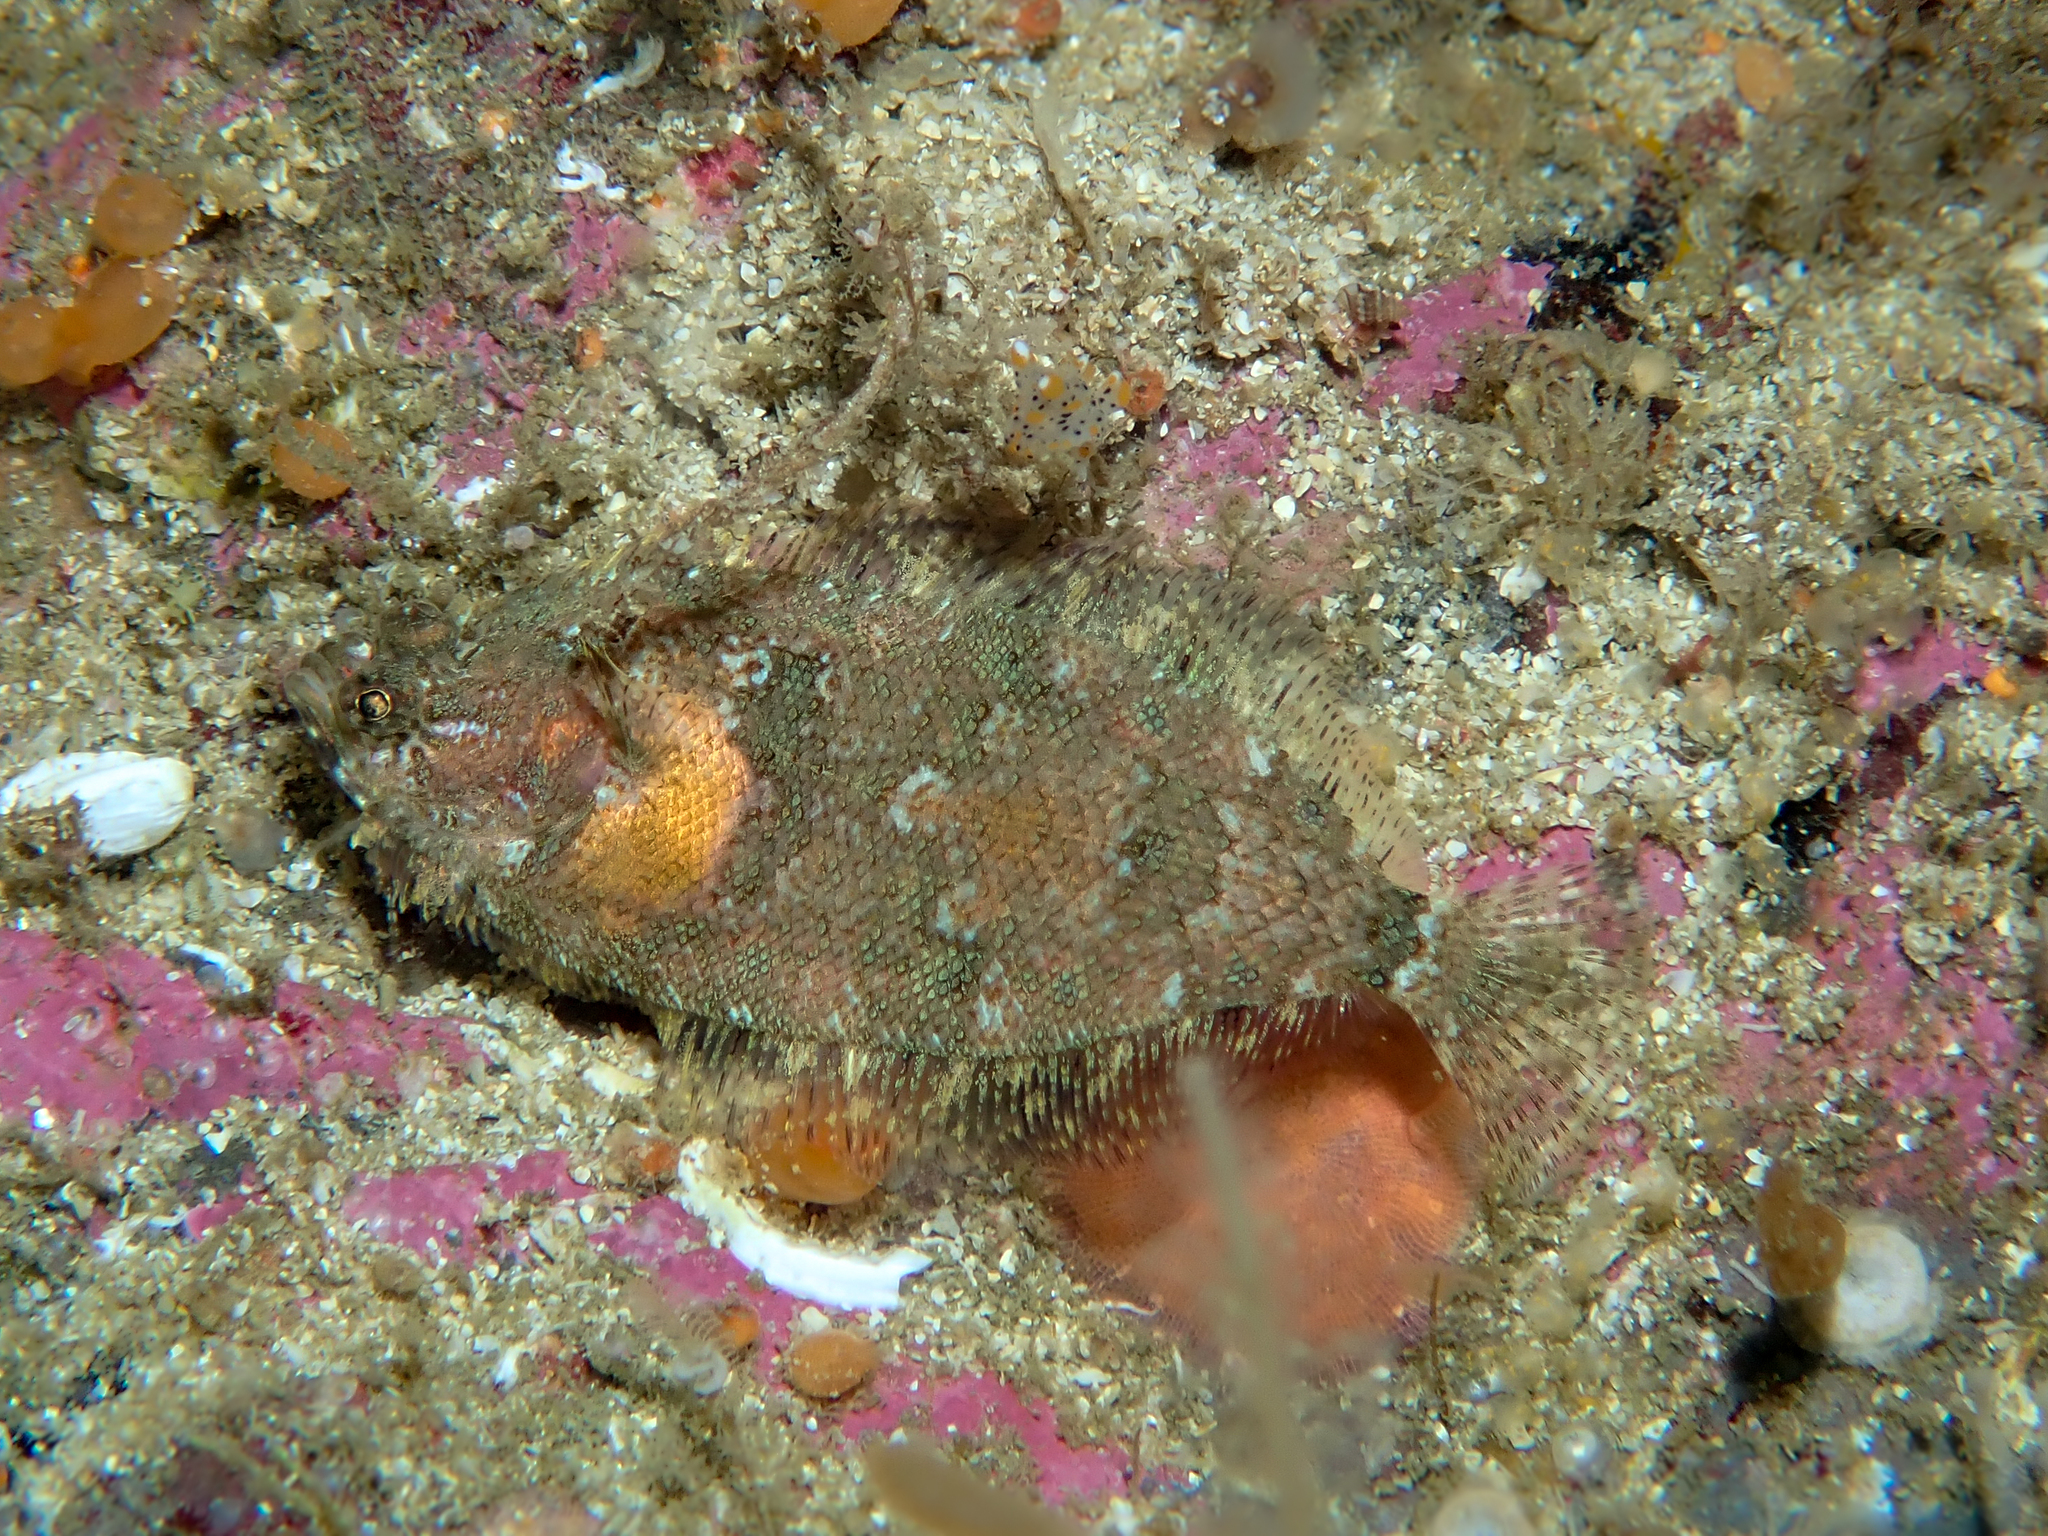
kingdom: Animalia
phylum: Chordata
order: Pleuronectiformes
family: Scophthalmidae
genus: Phrynorhombus
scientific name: Phrynorhombus norvegicus
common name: Norwegian topknot
